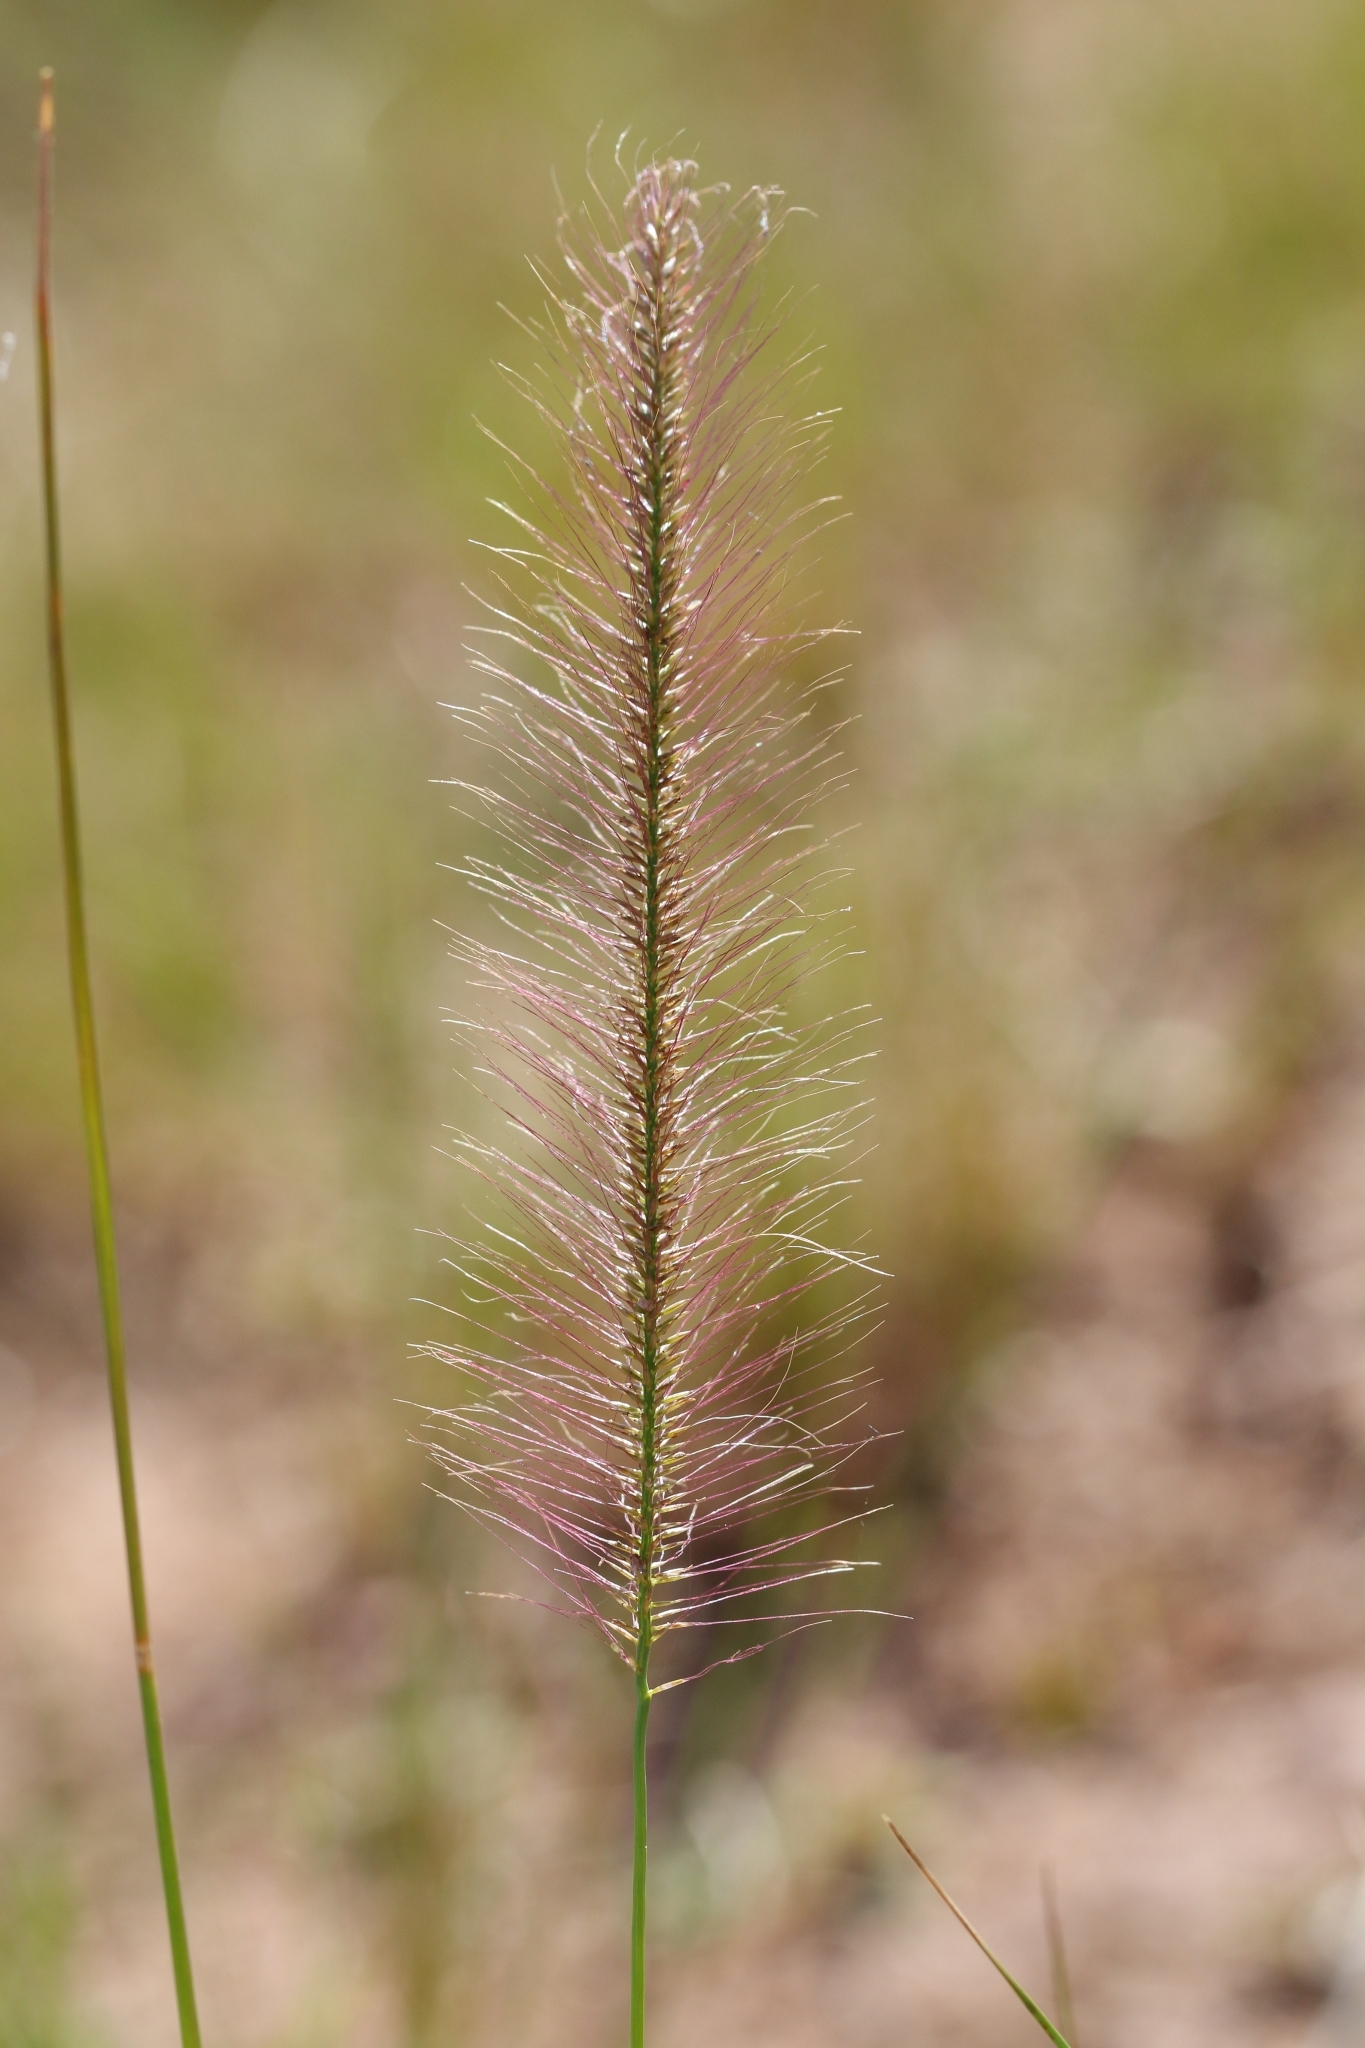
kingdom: Plantae
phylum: Tracheophyta
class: Liliopsida
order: Poales
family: Poaceae
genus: Perotis
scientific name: Perotis patens
